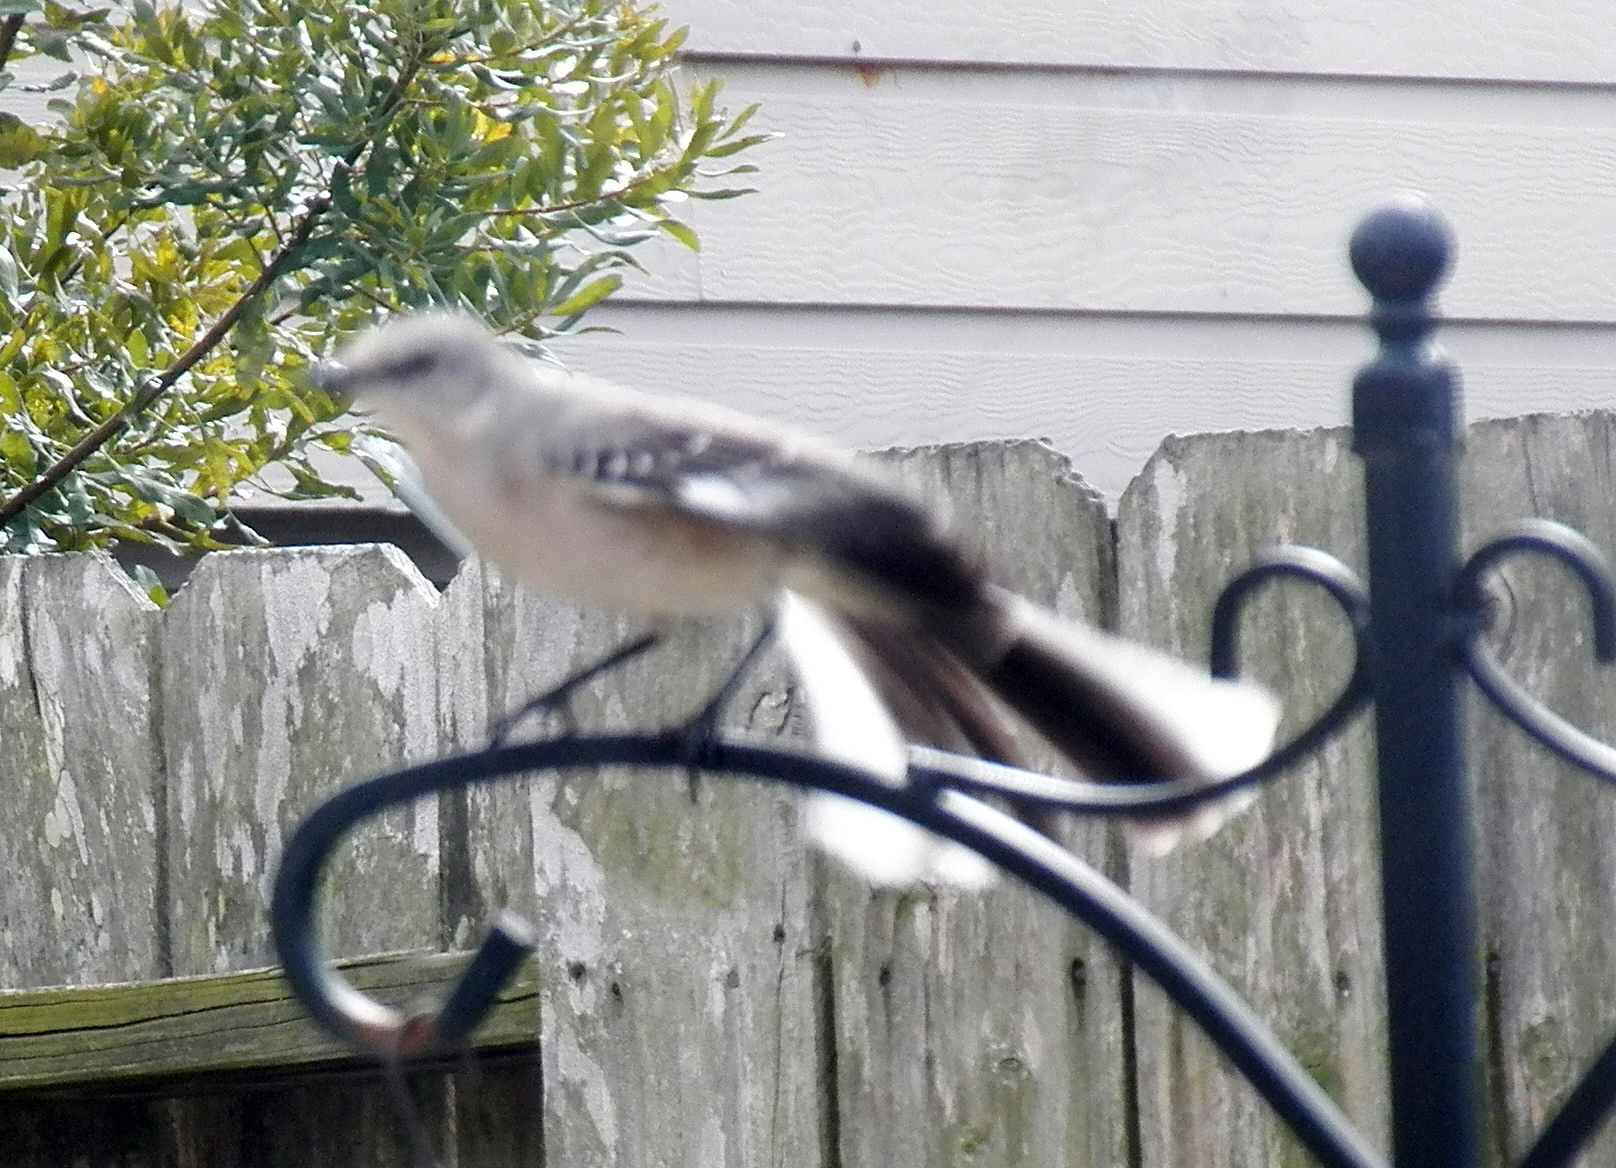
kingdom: Animalia
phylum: Chordata
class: Aves
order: Passeriformes
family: Mimidae
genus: Mimus
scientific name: Mimus polyglottos
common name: Northern mockingbird
